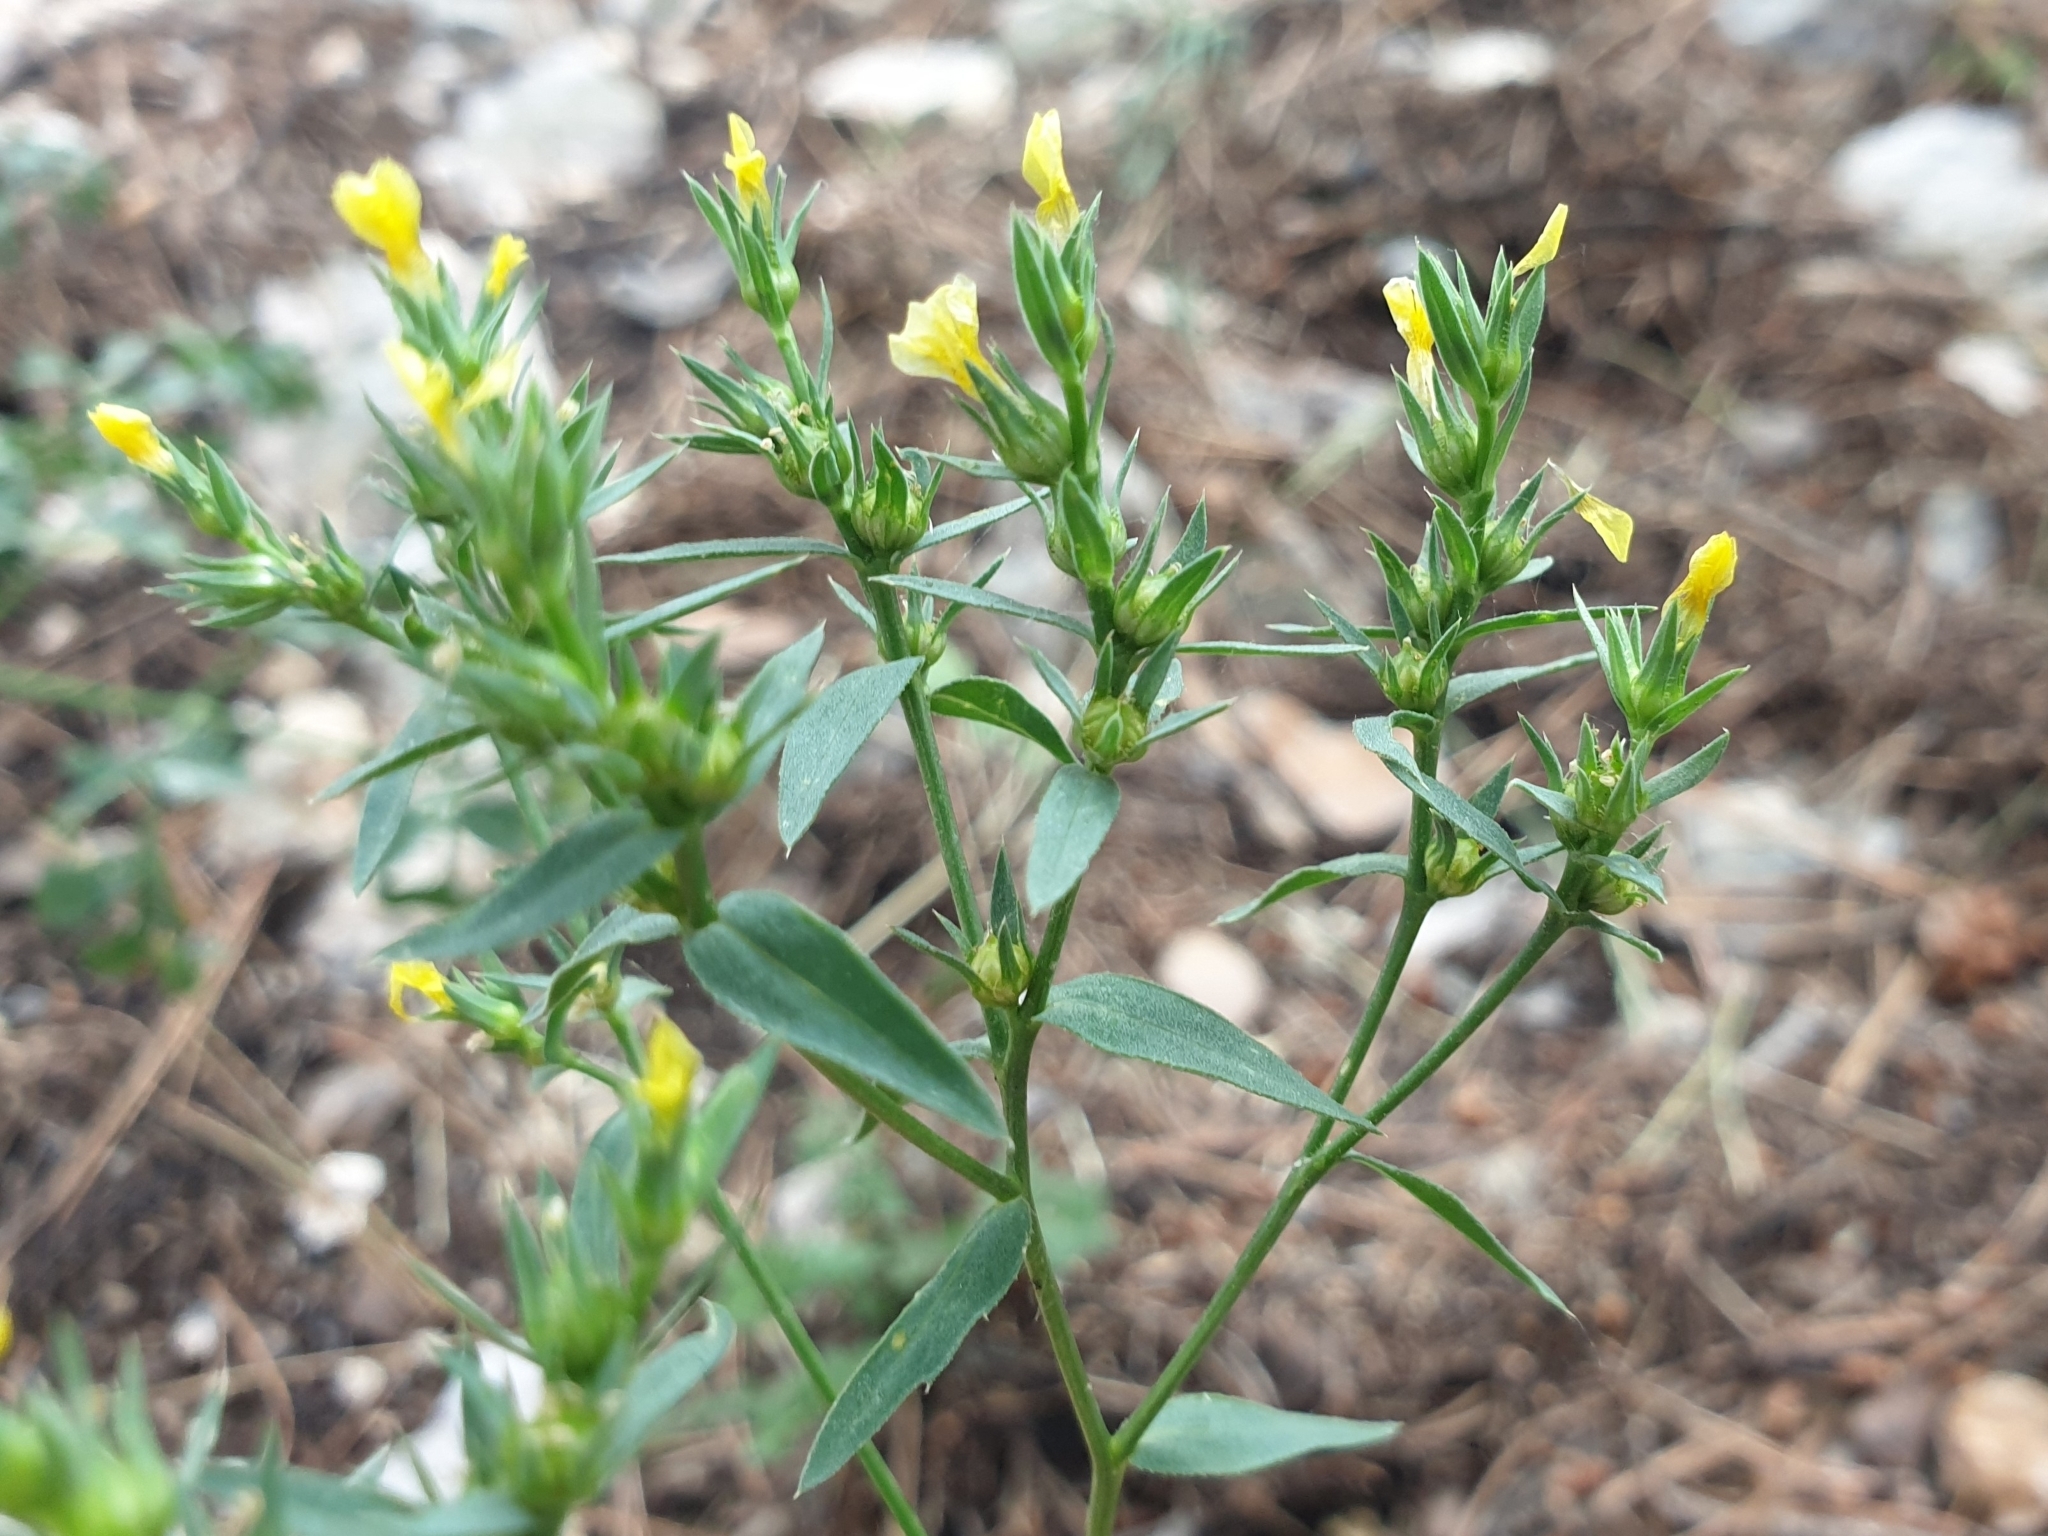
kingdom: Plantae
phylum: Tracheophyta
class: Magnoliopsida
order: Malpighiales
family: Linaceae
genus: Linum
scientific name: Linum strictum
